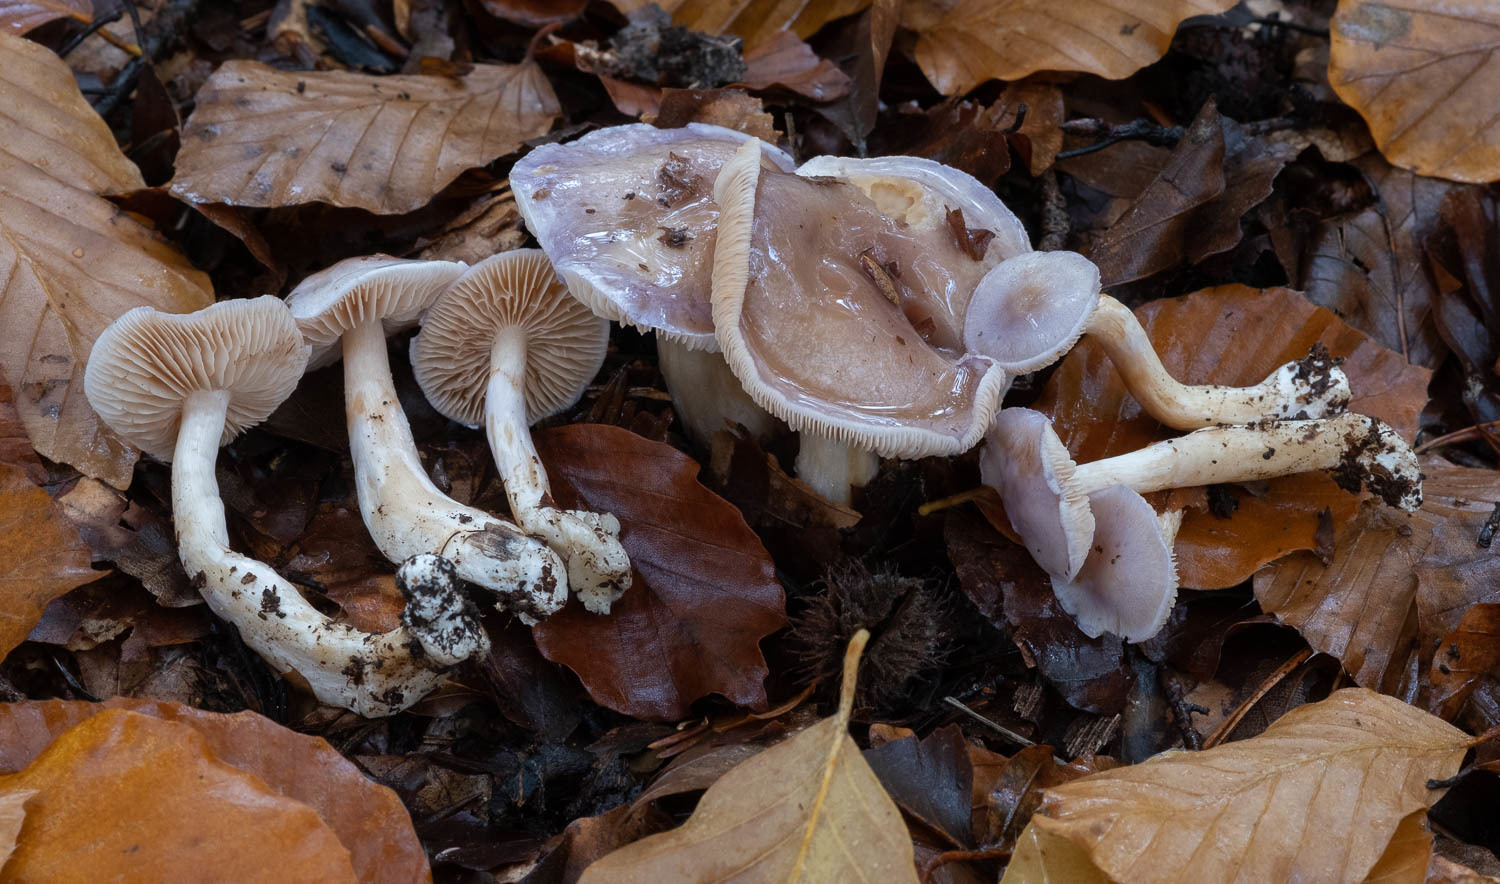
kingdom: Fungi
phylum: Basidiomycota
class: Agaricomycetes
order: Agaricales
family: Cortinariaceae
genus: Thaxterogaster
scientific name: Thaxterogaster croceocoeruleus
